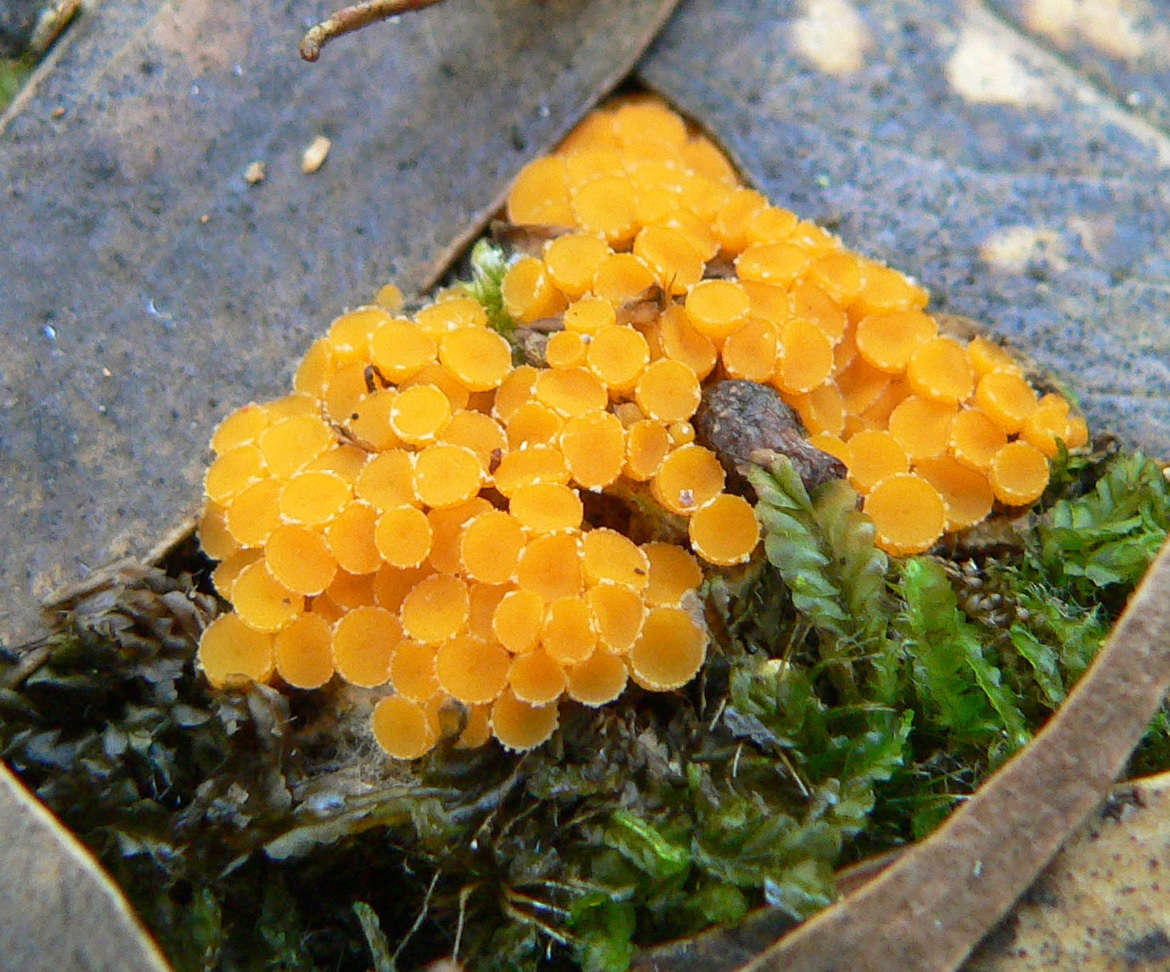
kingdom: Fungi
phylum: Ascomycota
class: Pezizomycetes
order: Pezizales
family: Pyronemataceae
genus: Byssonectria
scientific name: Byssonectria fusispora
